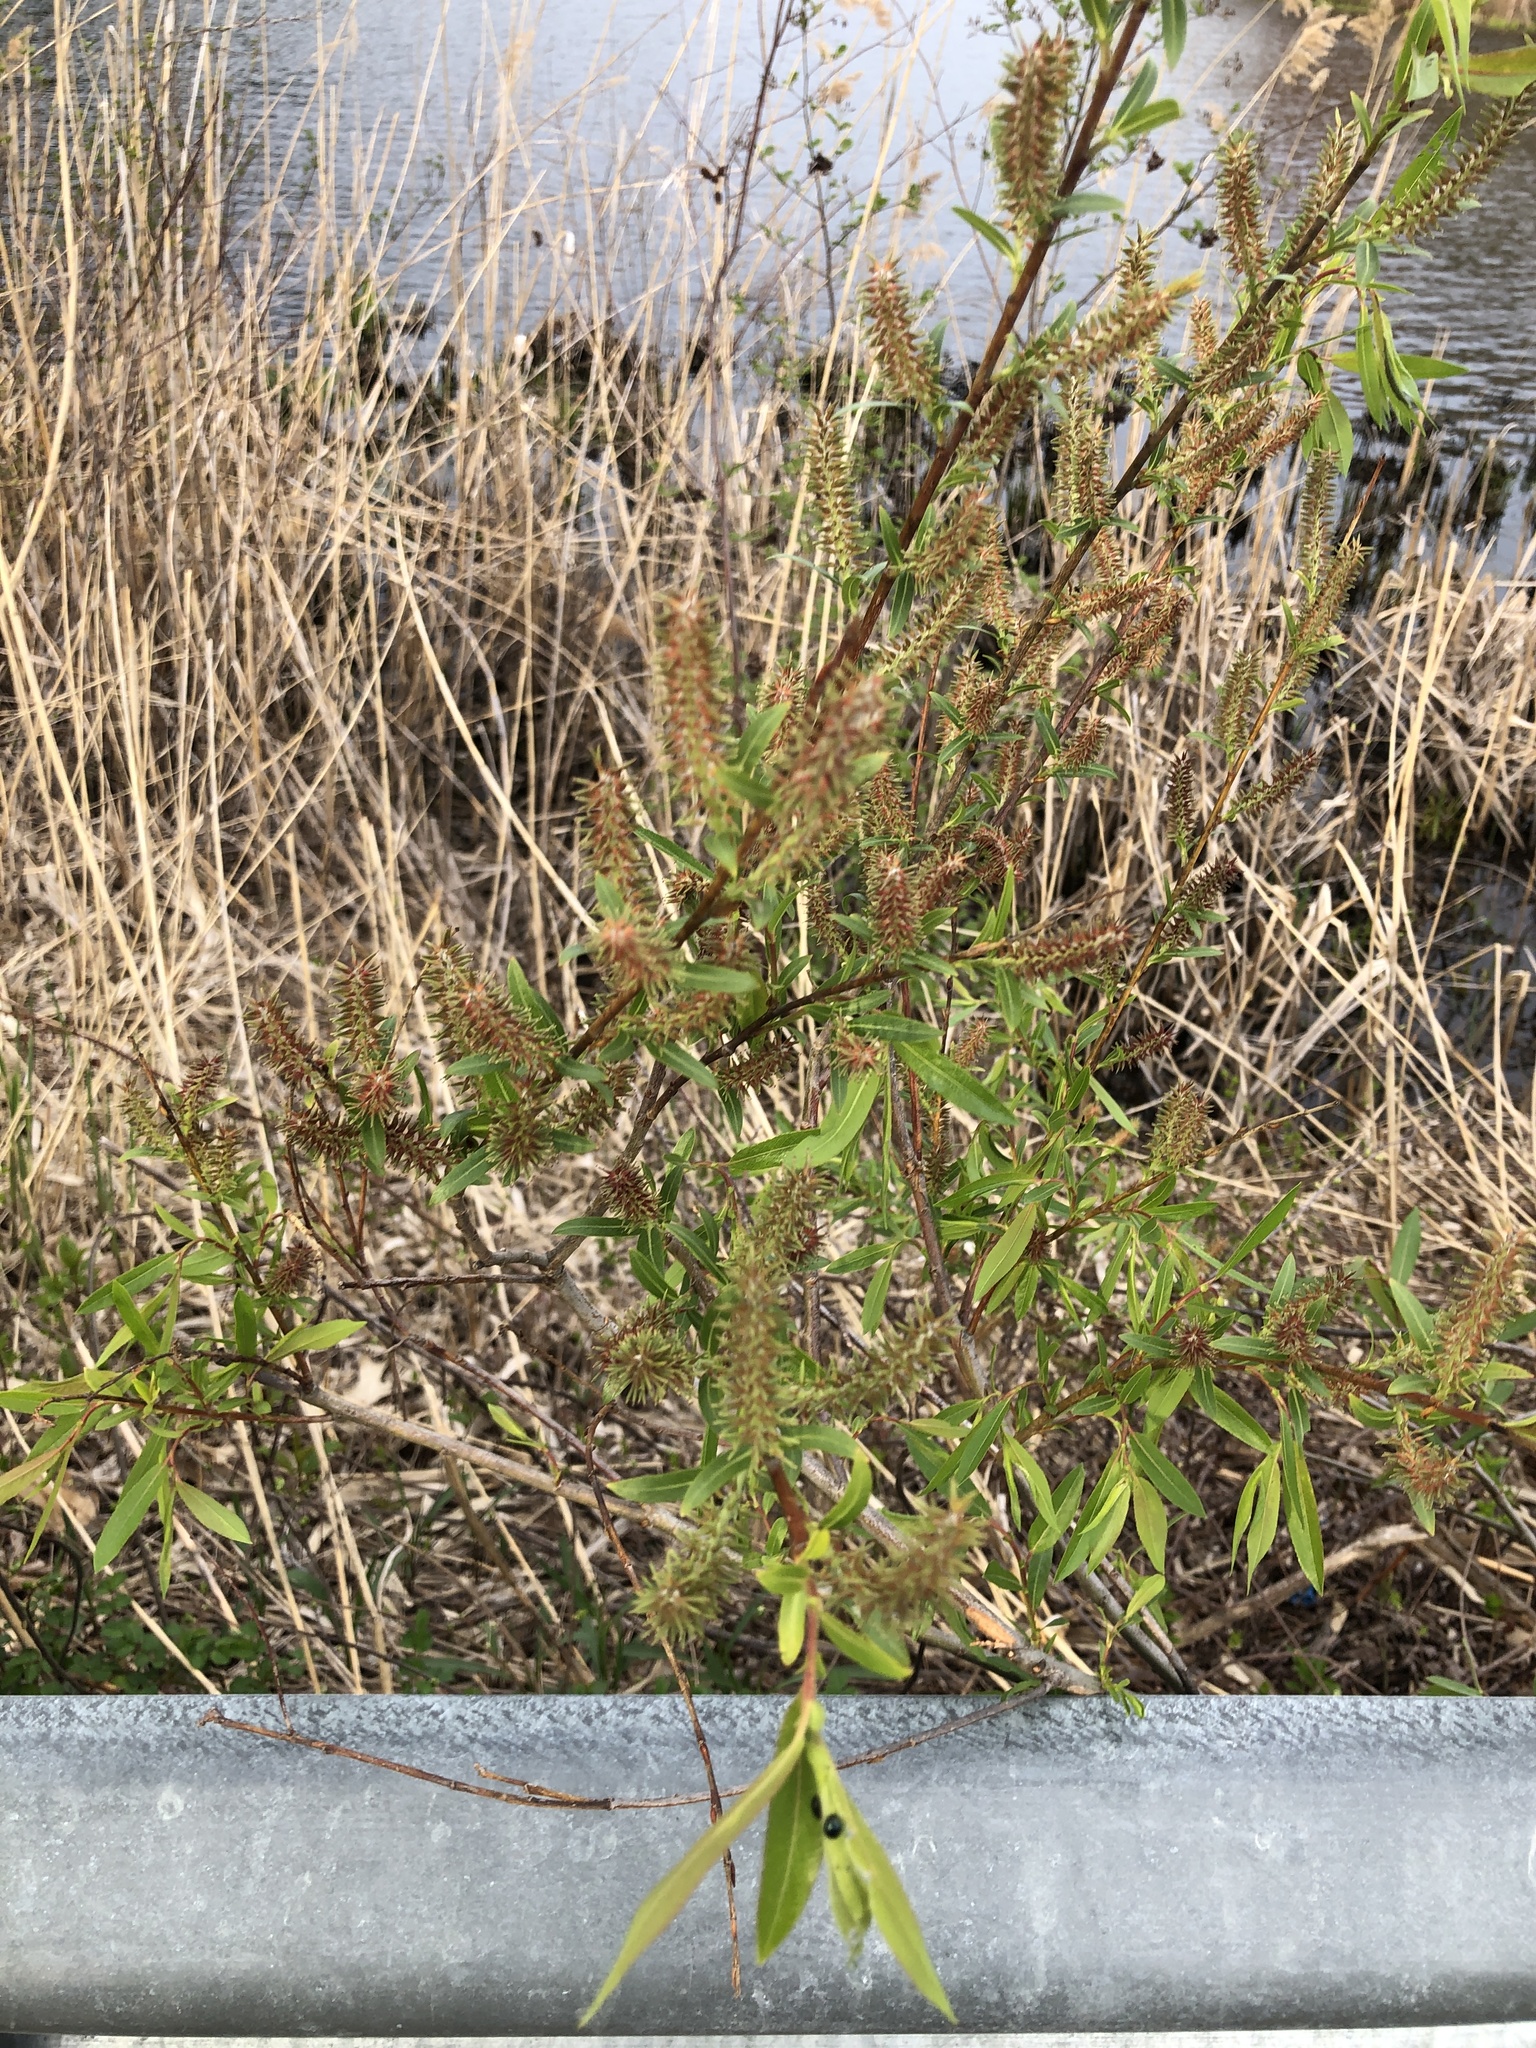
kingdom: Plantae
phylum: Tracheophyta
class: Magnoliopsida
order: Malpighiales
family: Salicaceae
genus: Salix
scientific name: Salix eriocephala
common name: Heart-leaved willow
